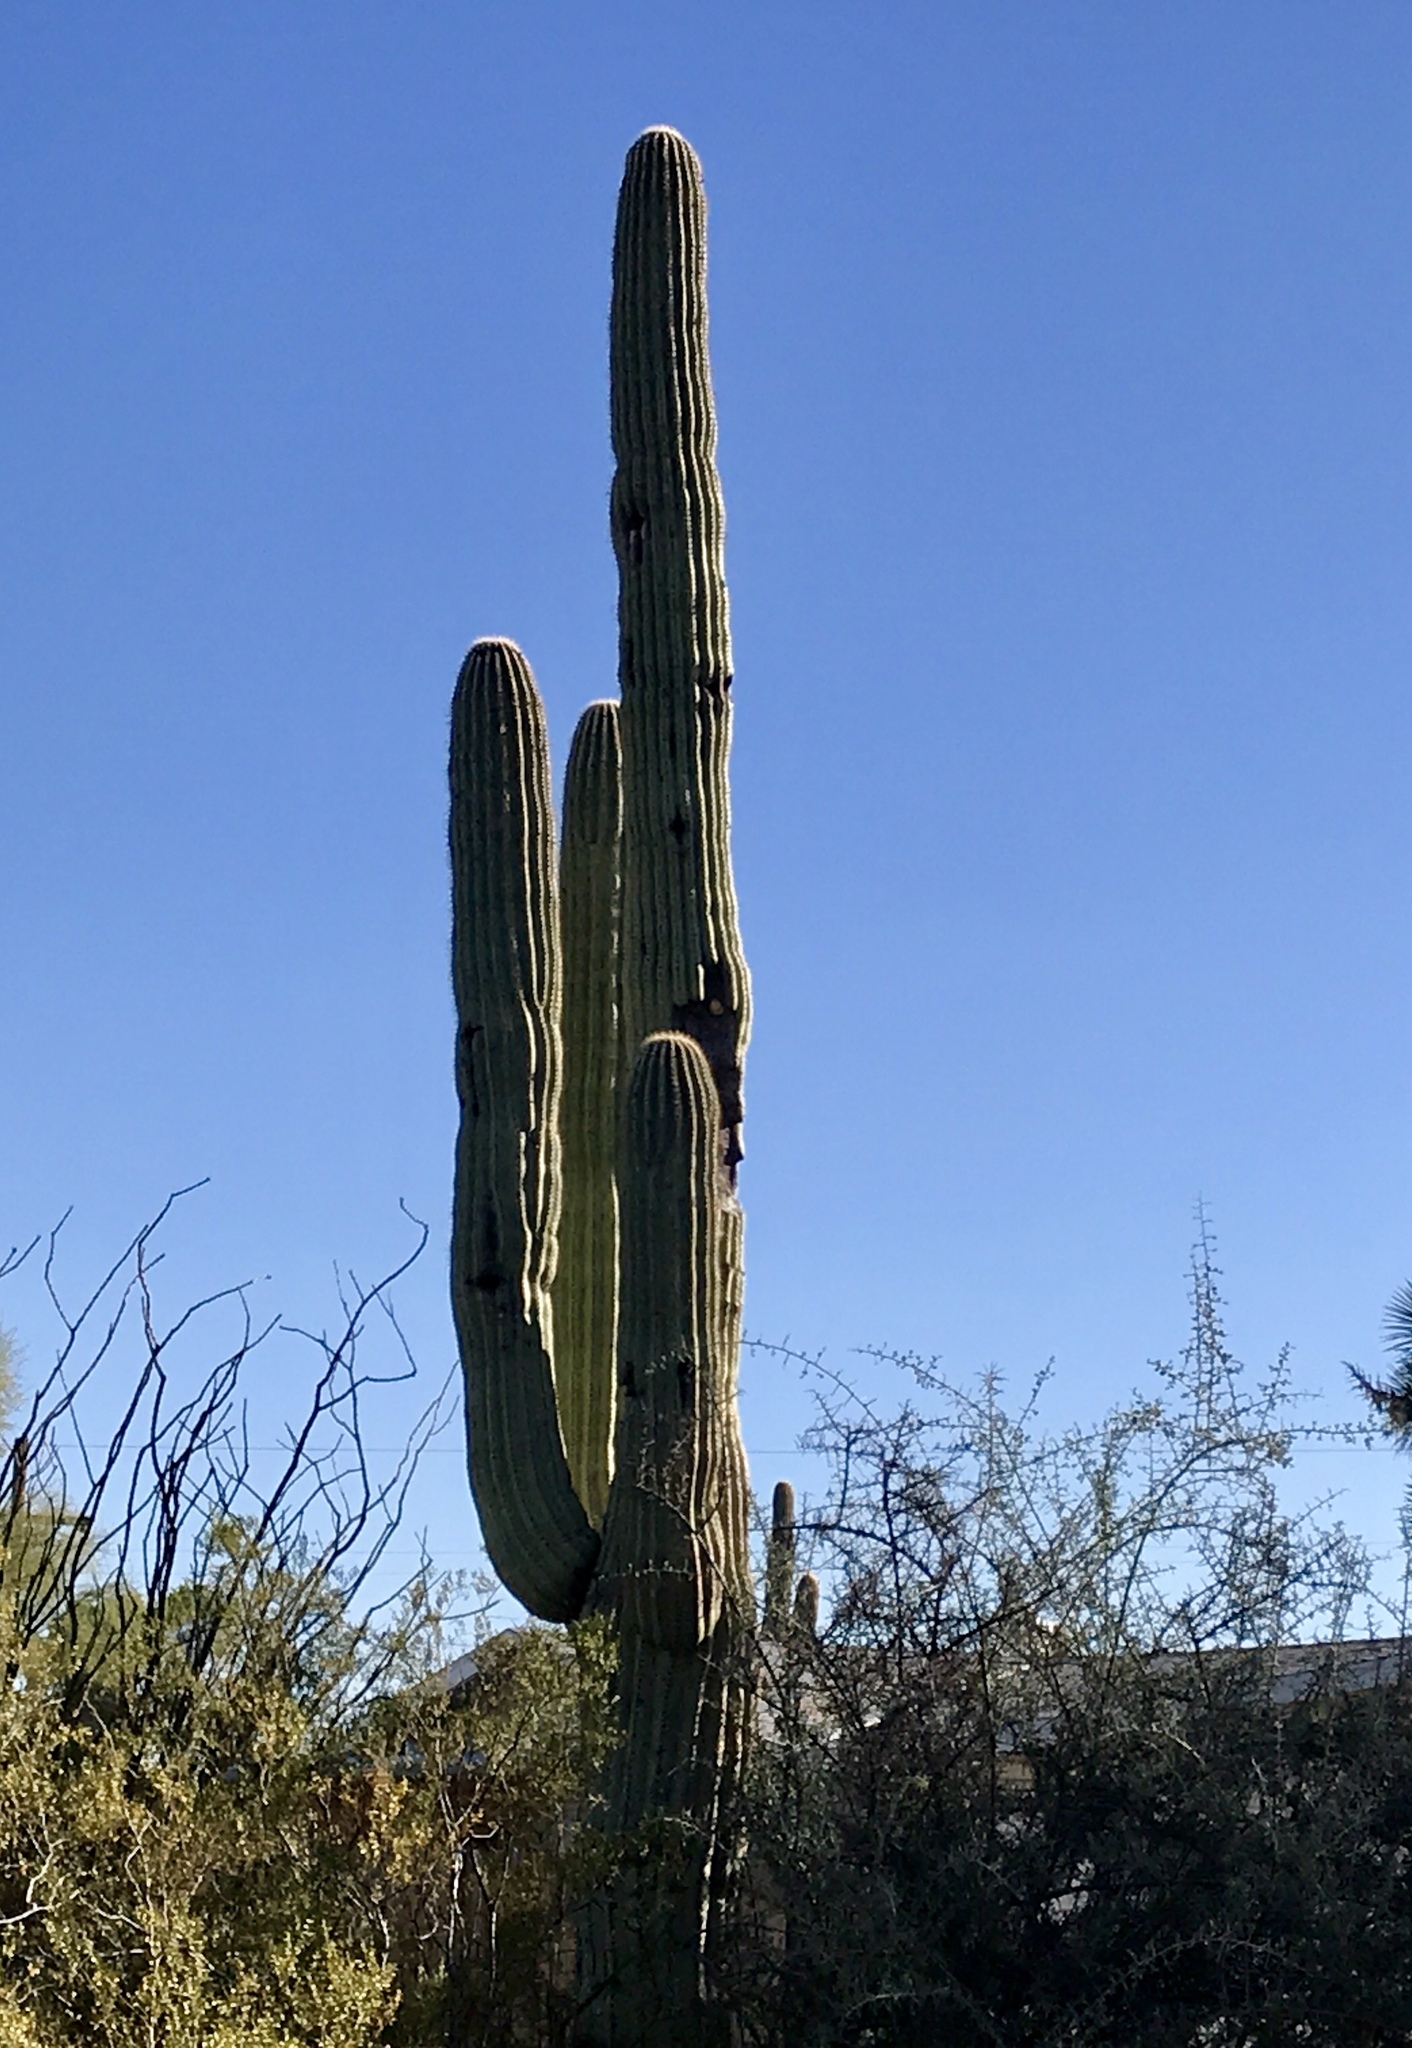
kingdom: Plantae
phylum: Tracheophyta
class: Magnoliopsida
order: Caryophyllales
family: Cactaceae
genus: Carnegiea
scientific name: Carnegiea gigantea
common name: Saguaro
